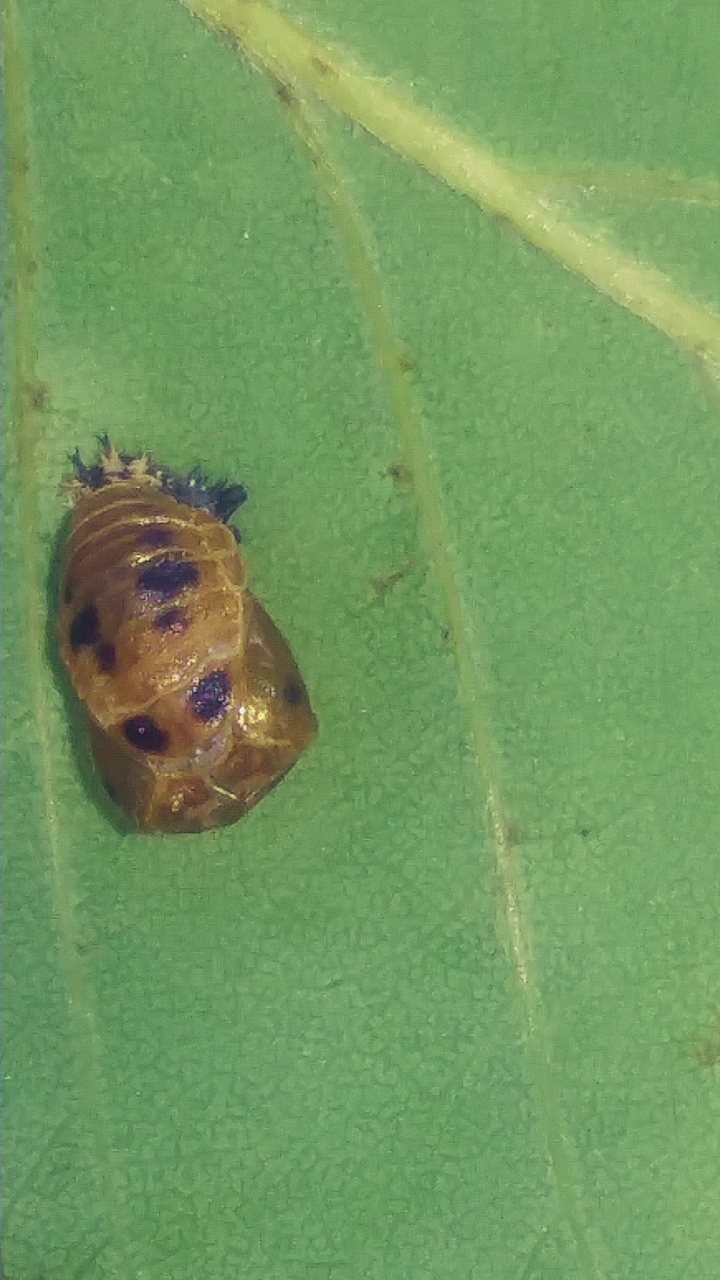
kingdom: Animalia
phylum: Arthropoda
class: Insecta
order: Coleoptera
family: Coccinellidae
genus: Harmonia
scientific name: Harmonia axyridis
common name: Harlequin ladybird
